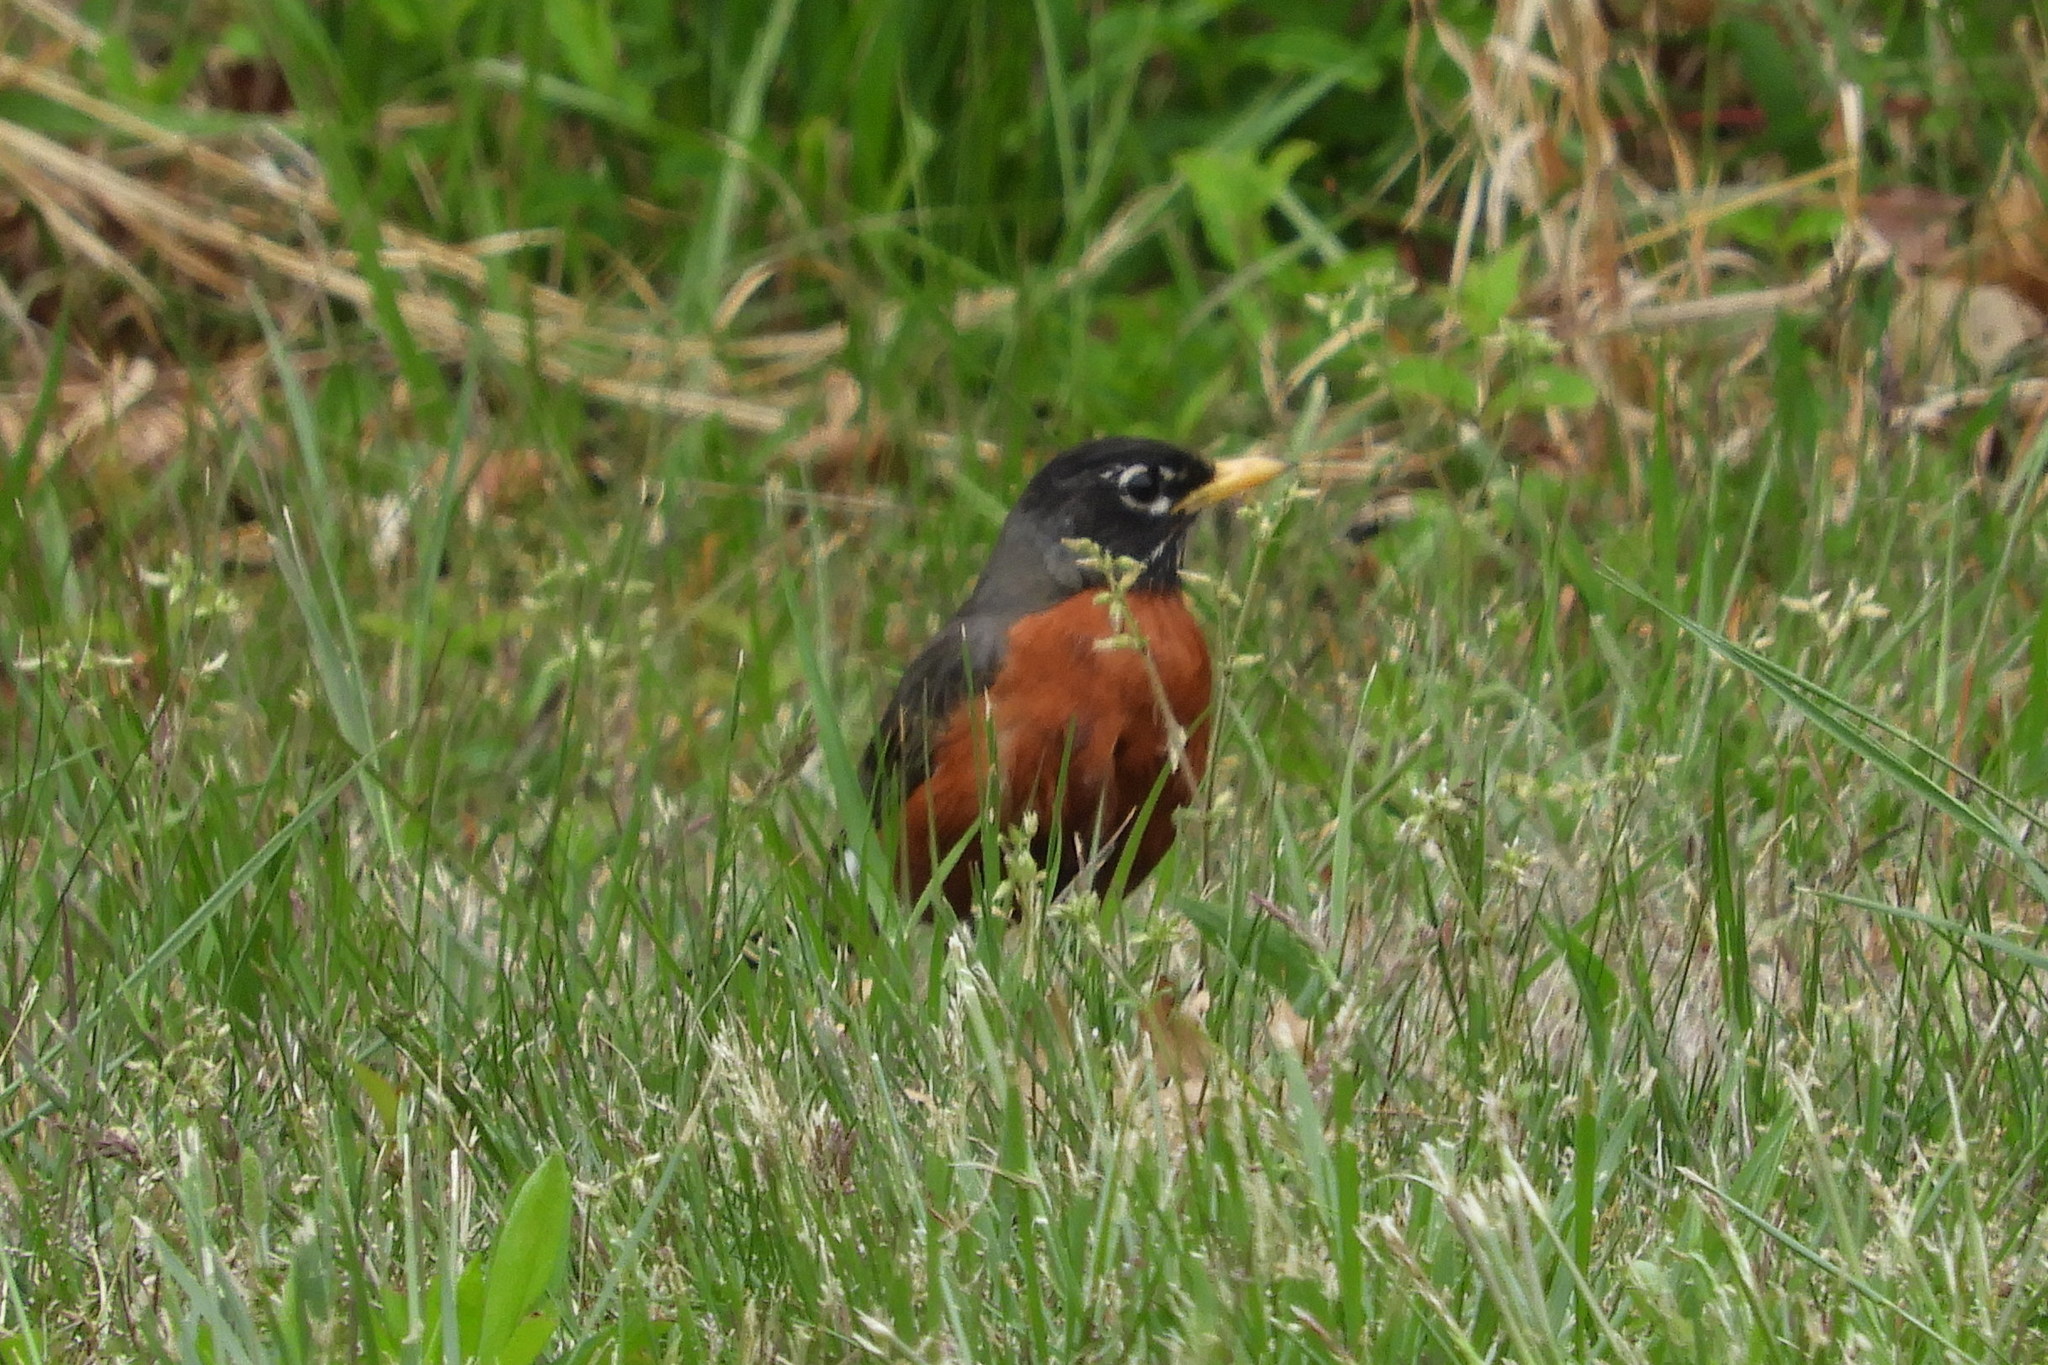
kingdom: Animalia
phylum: Chordata
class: Aves
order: Passeriformes
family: Turdidae
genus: Turdus
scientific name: Turdus migratorius
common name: American robin
